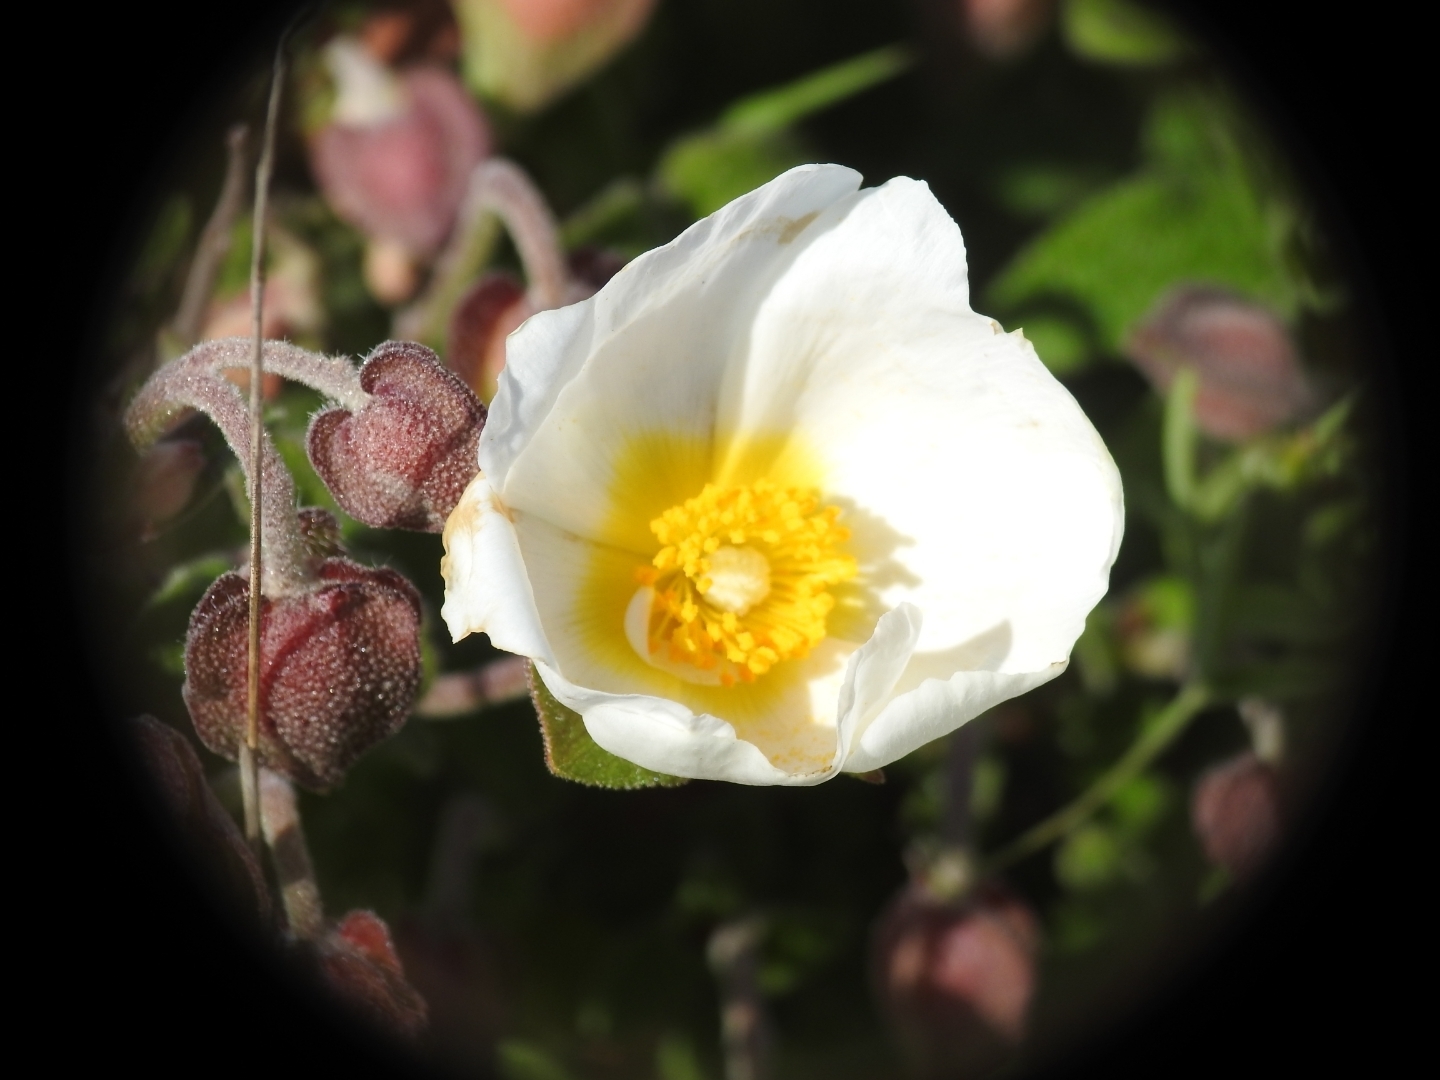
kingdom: Plantae
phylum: Tracheophyta
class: Magnoliopsida
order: Malvales
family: Cistaceae
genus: Cistus
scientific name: Cistus salviifolius
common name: Salvia cistus
